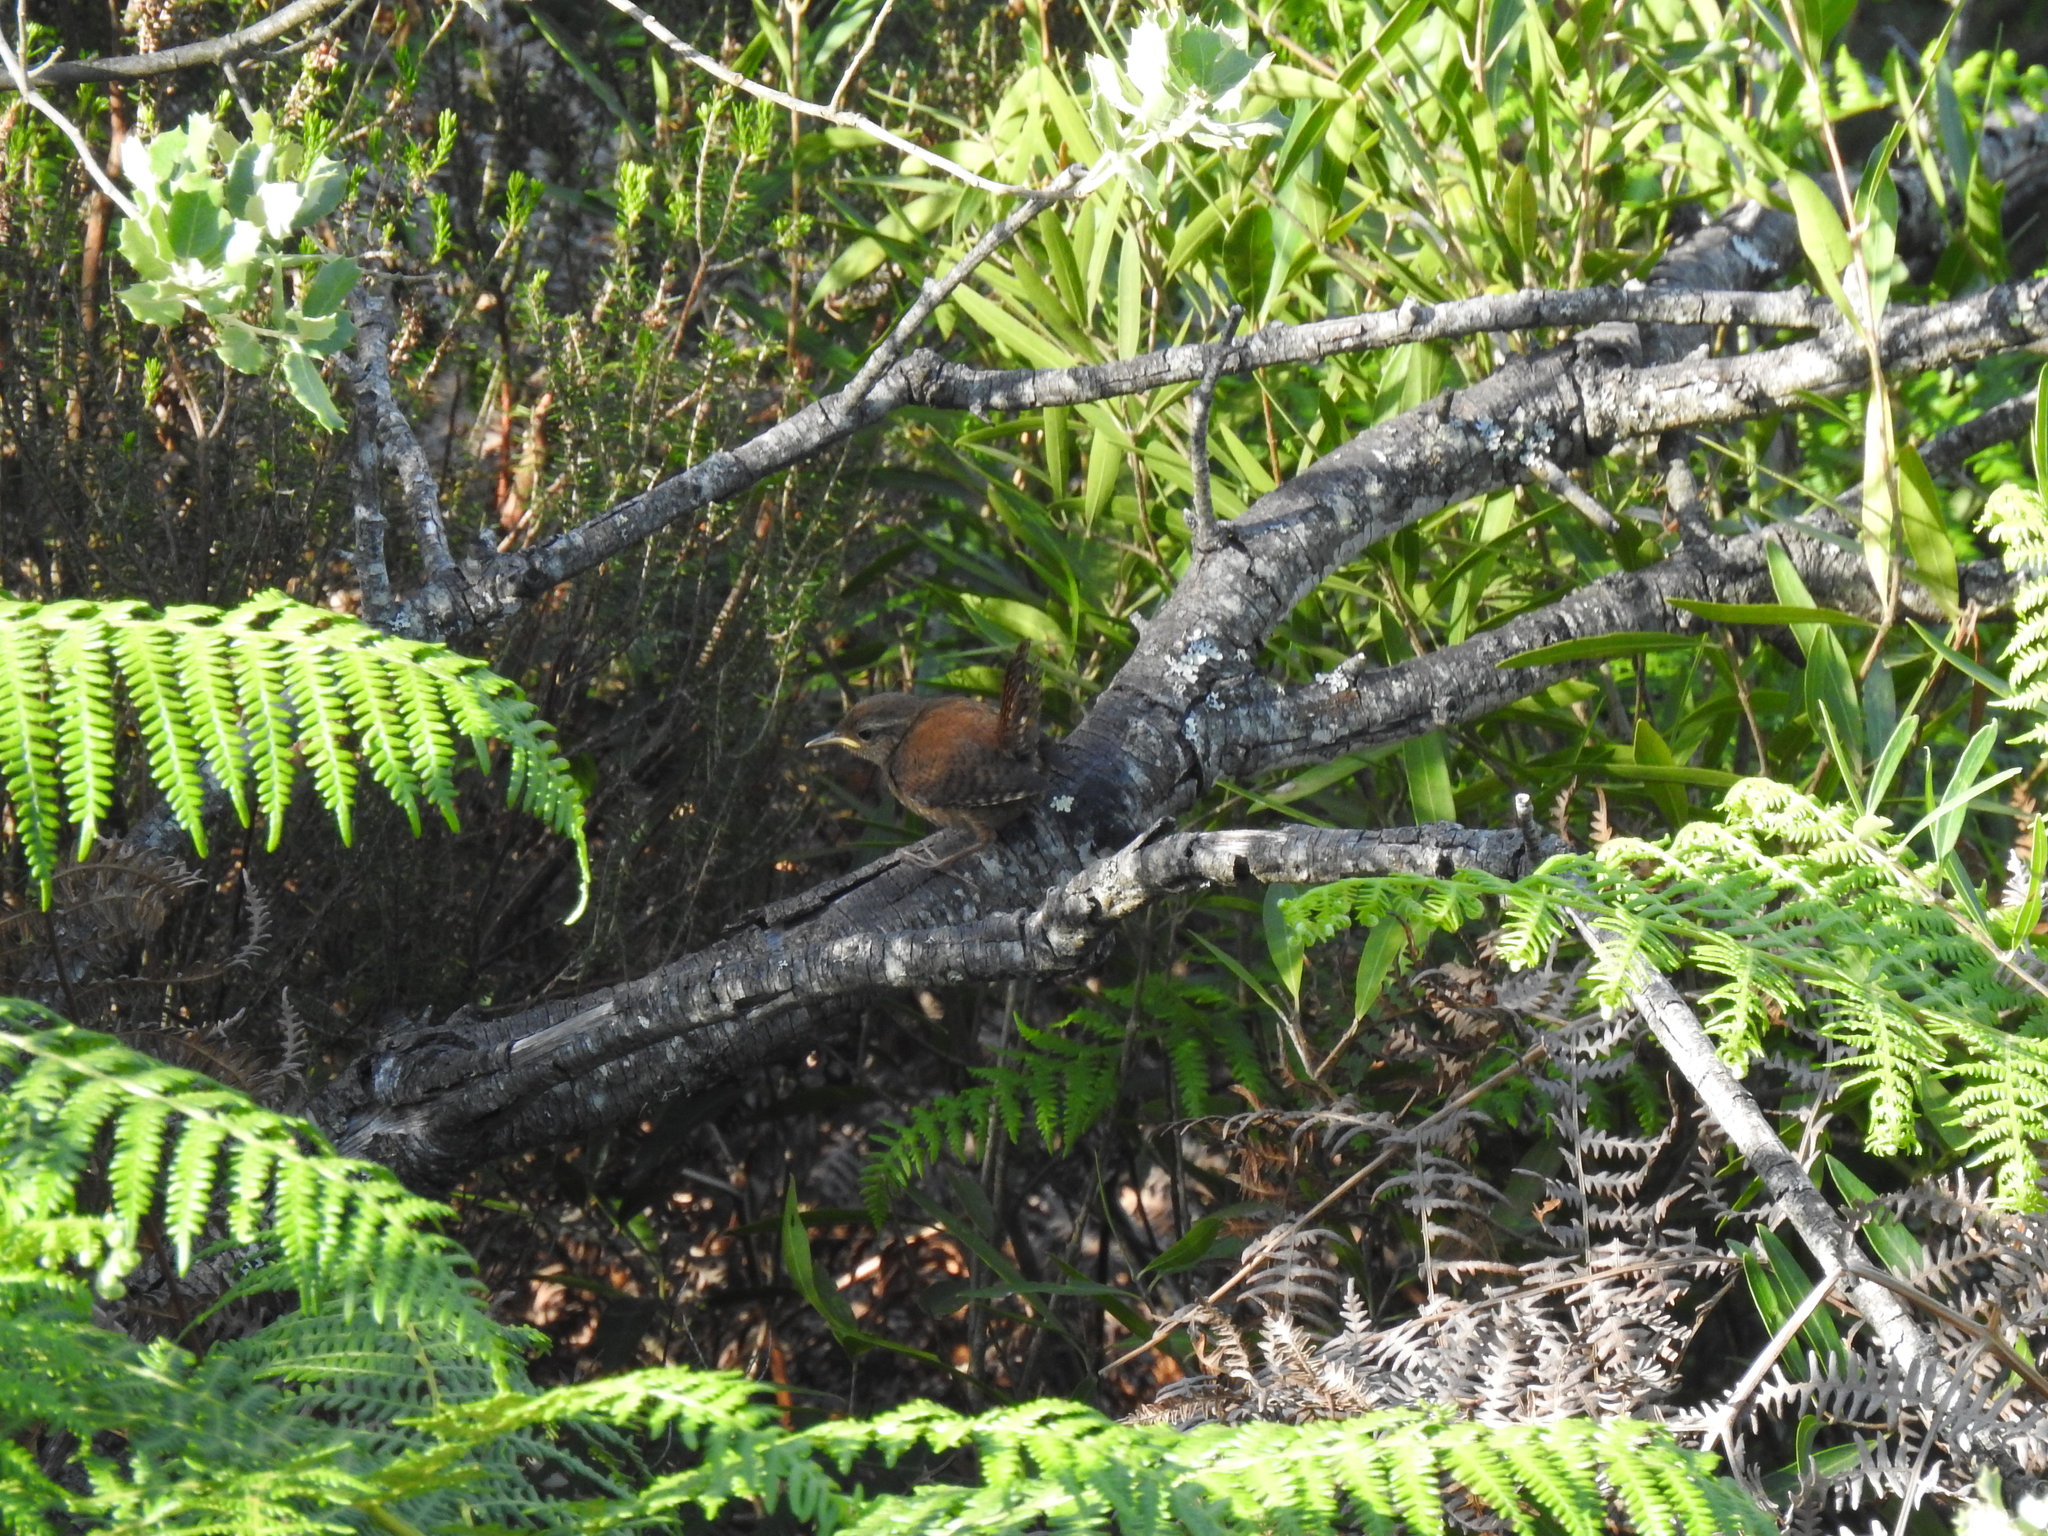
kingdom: Animalia
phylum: Chordata
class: Aves
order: Passeriformes
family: Troglodytidae
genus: Troglodytes
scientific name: Troglodytes troglodytes
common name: Eurasian wren
